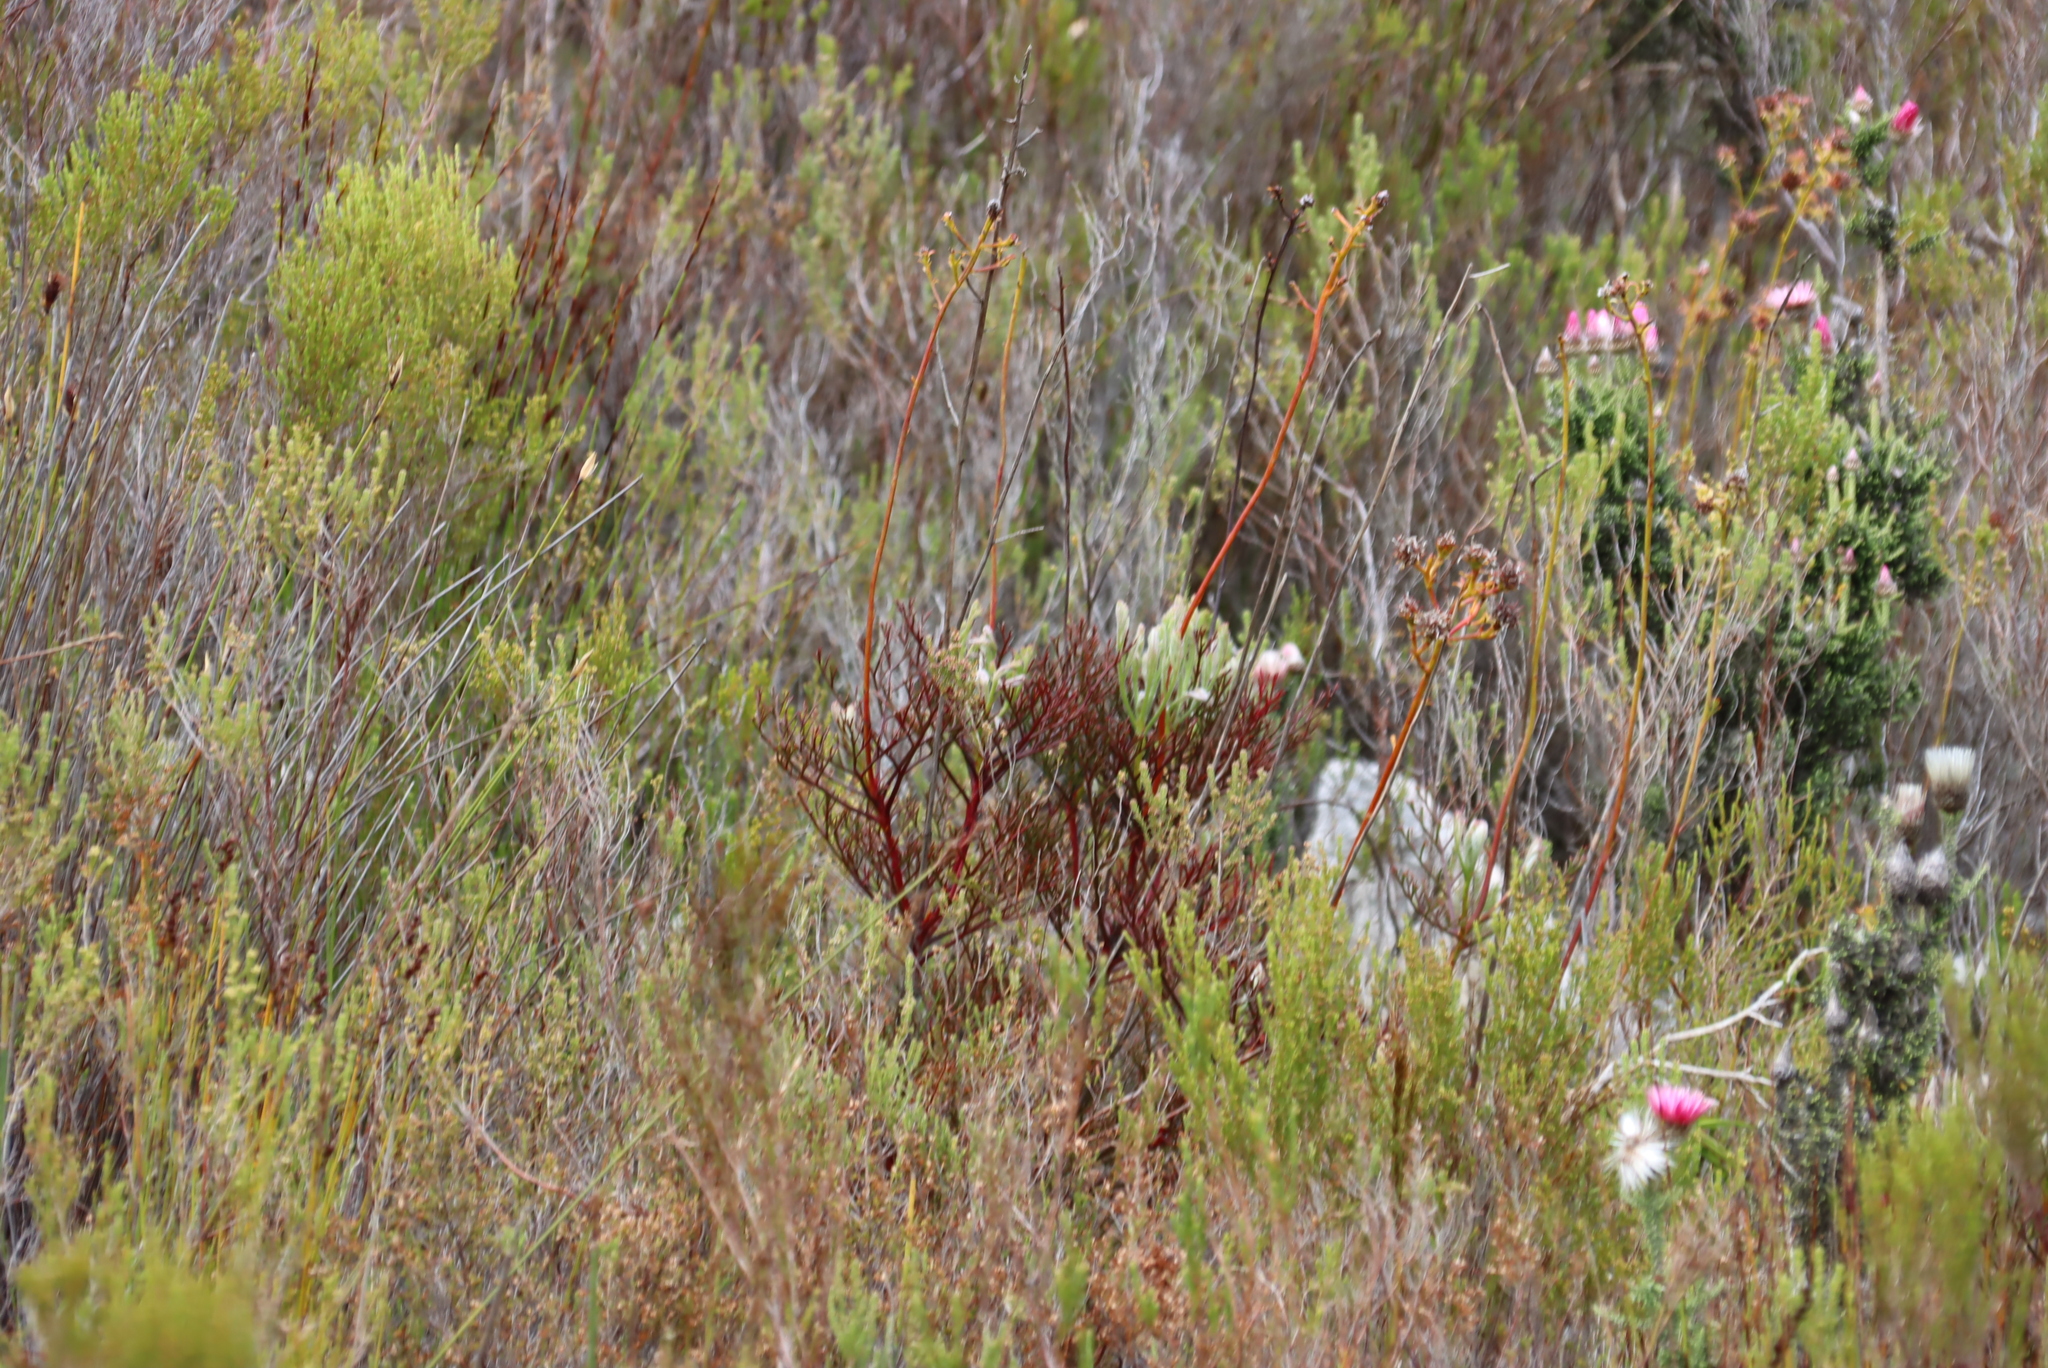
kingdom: Plantae
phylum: Tracheophyta
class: Magnoliopsida
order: Proteales
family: Proteaceae
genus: Serruria
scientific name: Serruria elongata
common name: Long-stalk spiderhead
